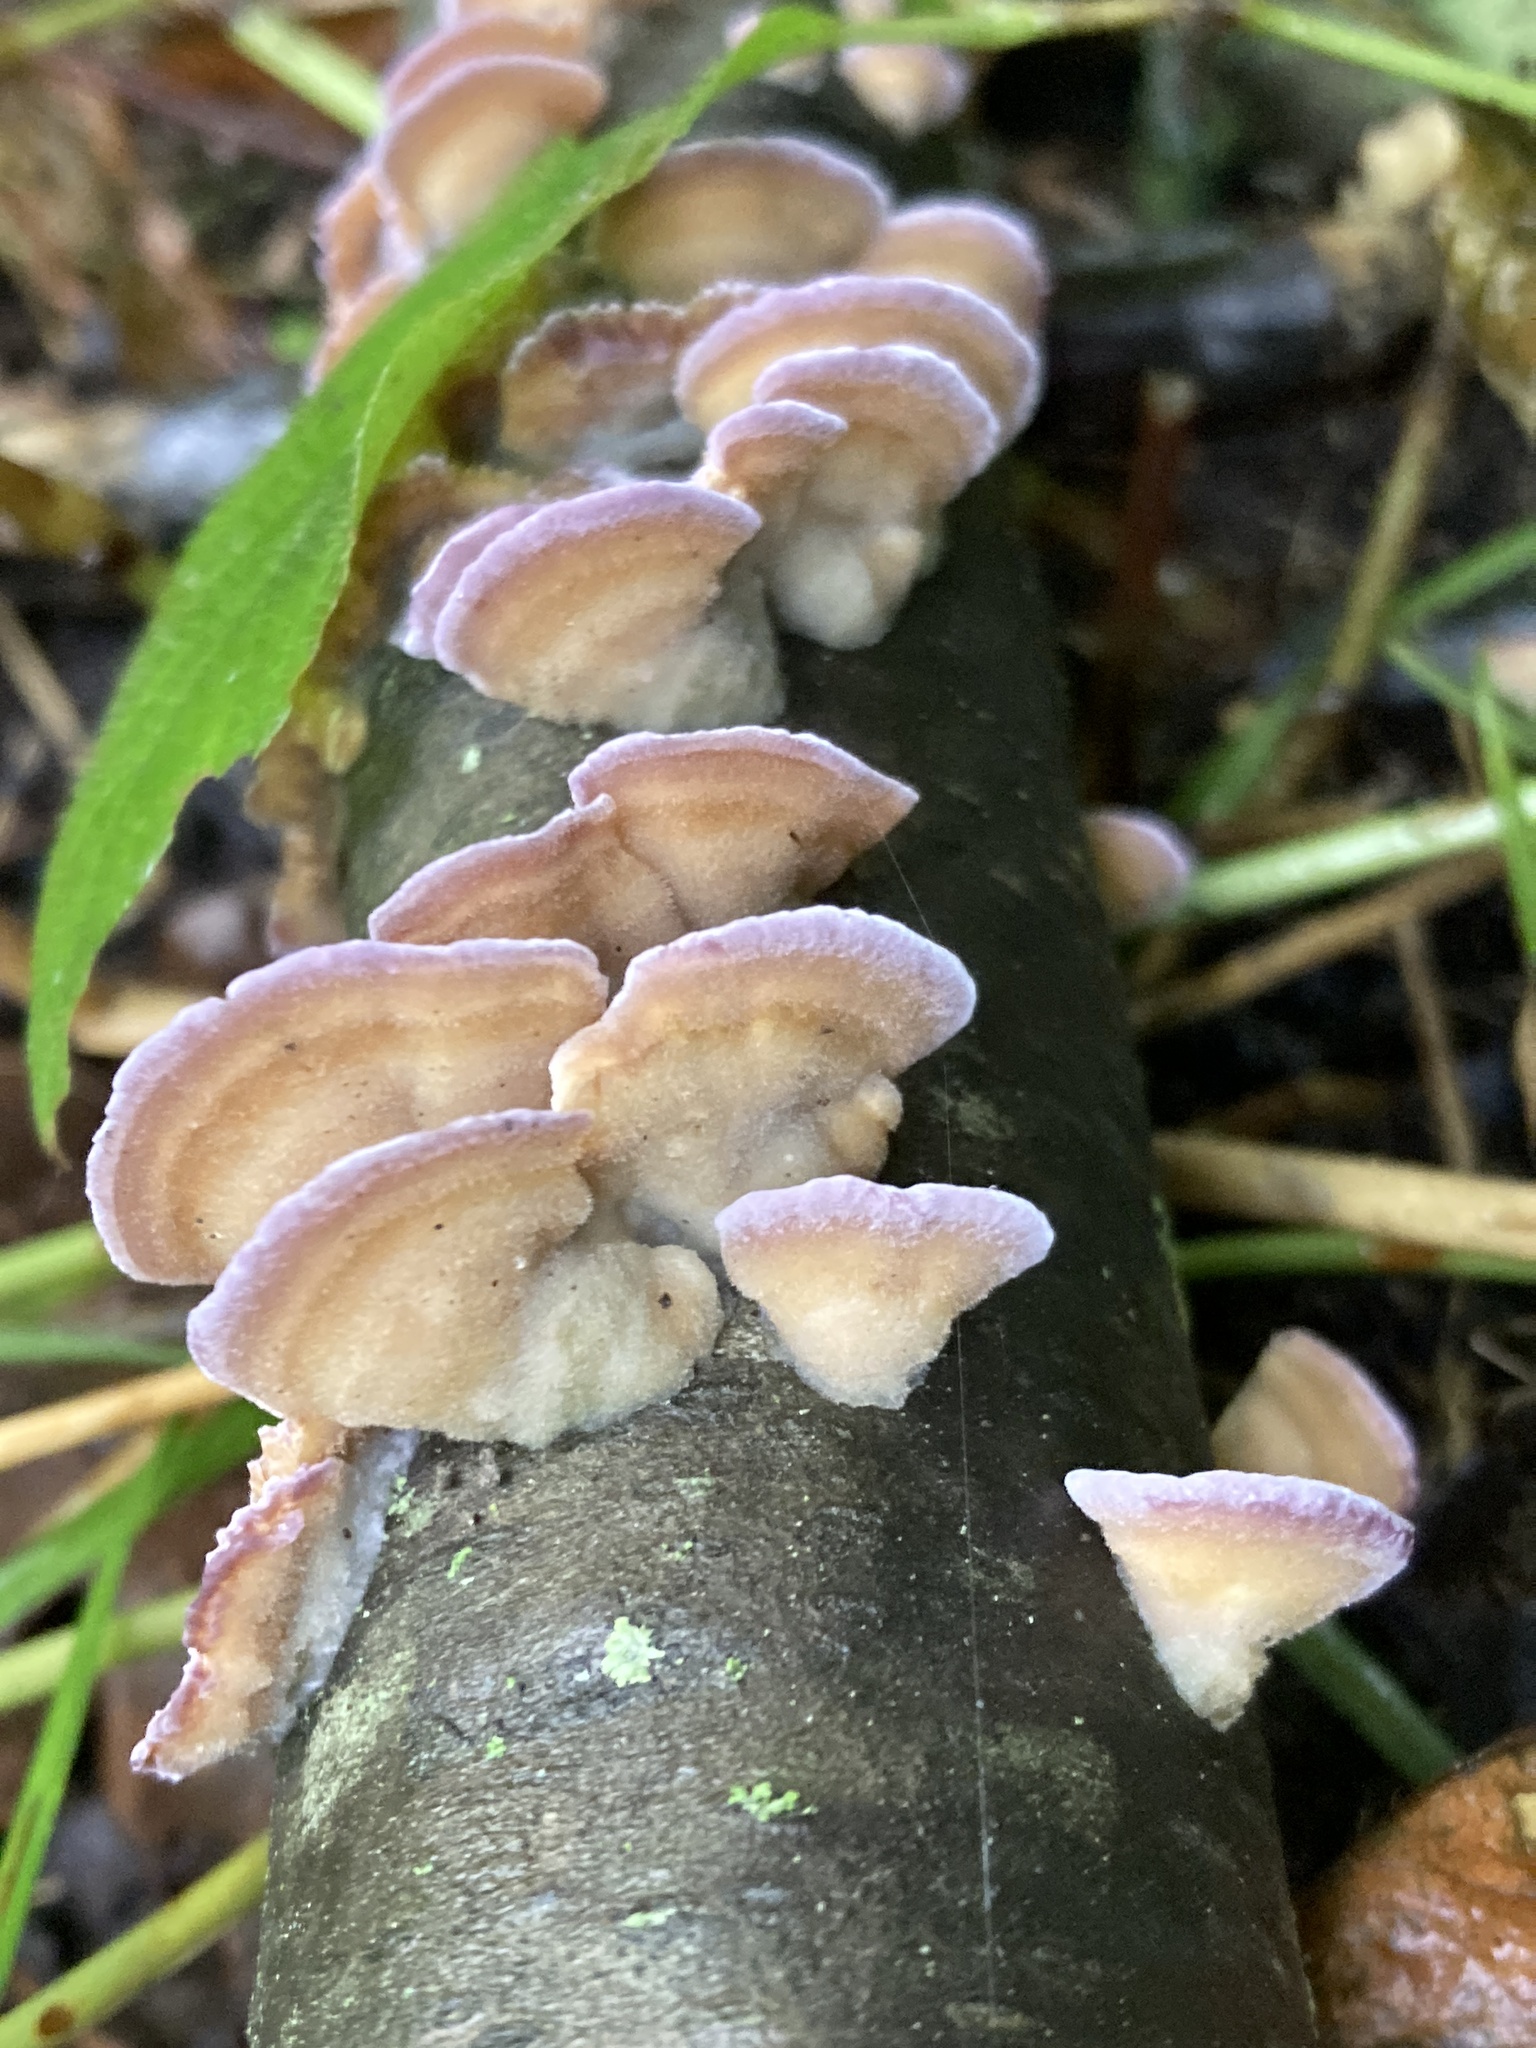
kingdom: Fungi
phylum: Basidiomycota
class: Agaricomycetes
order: Hymenochaetales
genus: Trichaptum
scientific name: Trichaptum biforme
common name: Violet-toothed polypore
